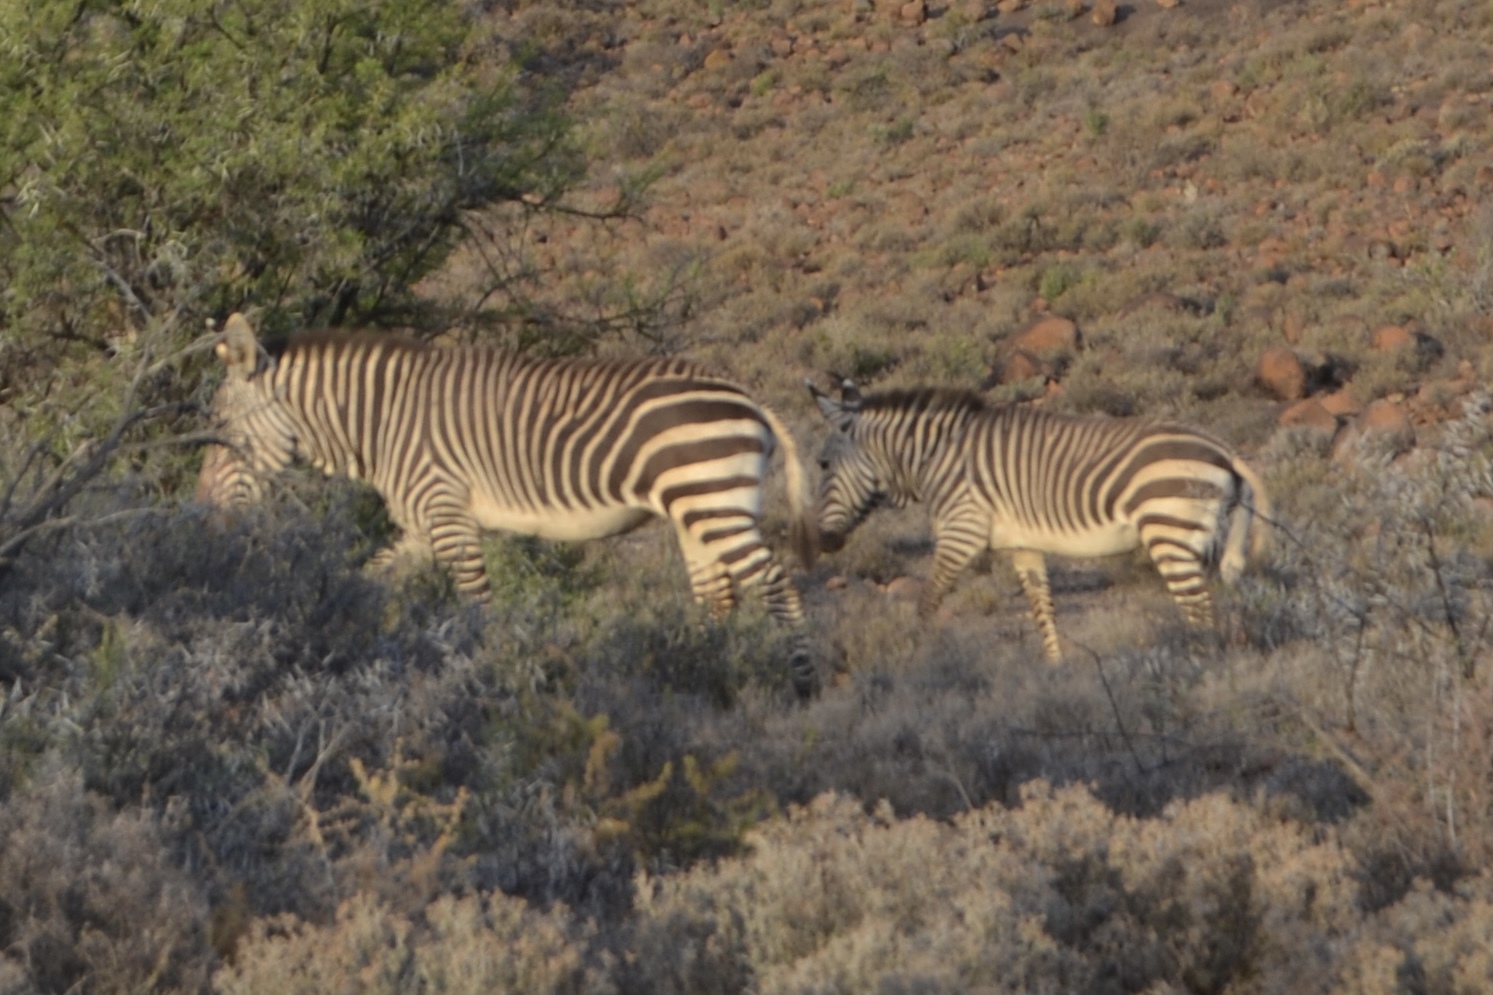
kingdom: Animalia
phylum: Chordata
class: Mammalia
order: Perissodactyla
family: Equidae
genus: Equus
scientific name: Equus zebra
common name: Mountain zebra
